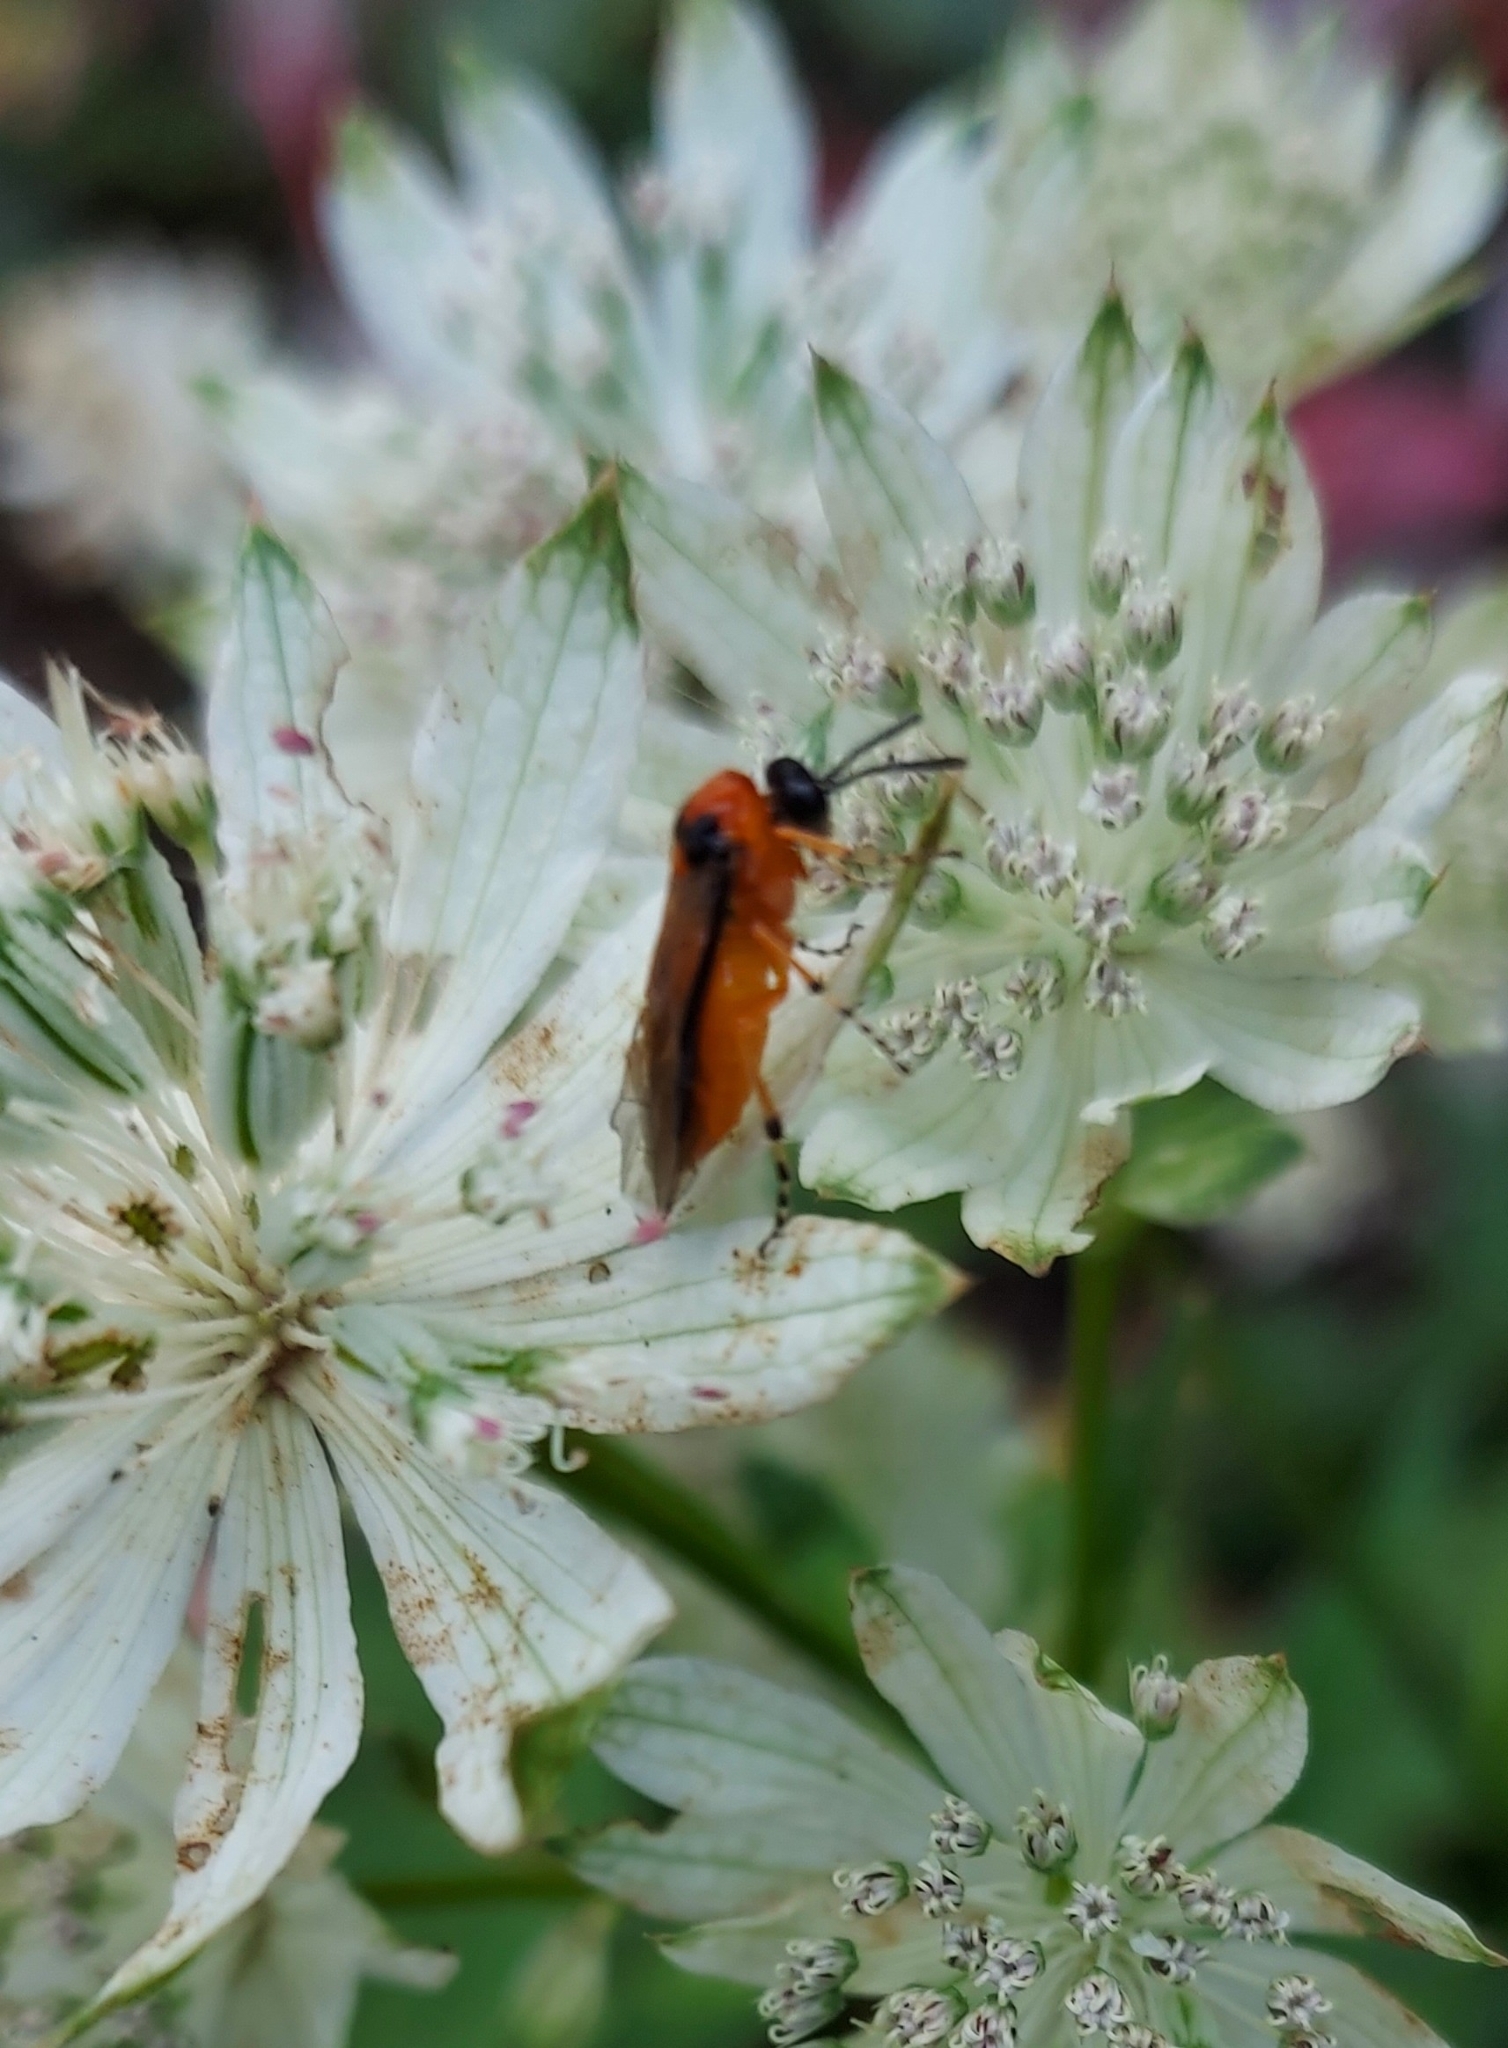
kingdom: Animalia
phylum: Arthropoda
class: Insecta
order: Hymenoptera
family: Tenthredinidae
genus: Athalia
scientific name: Athalia rosae
